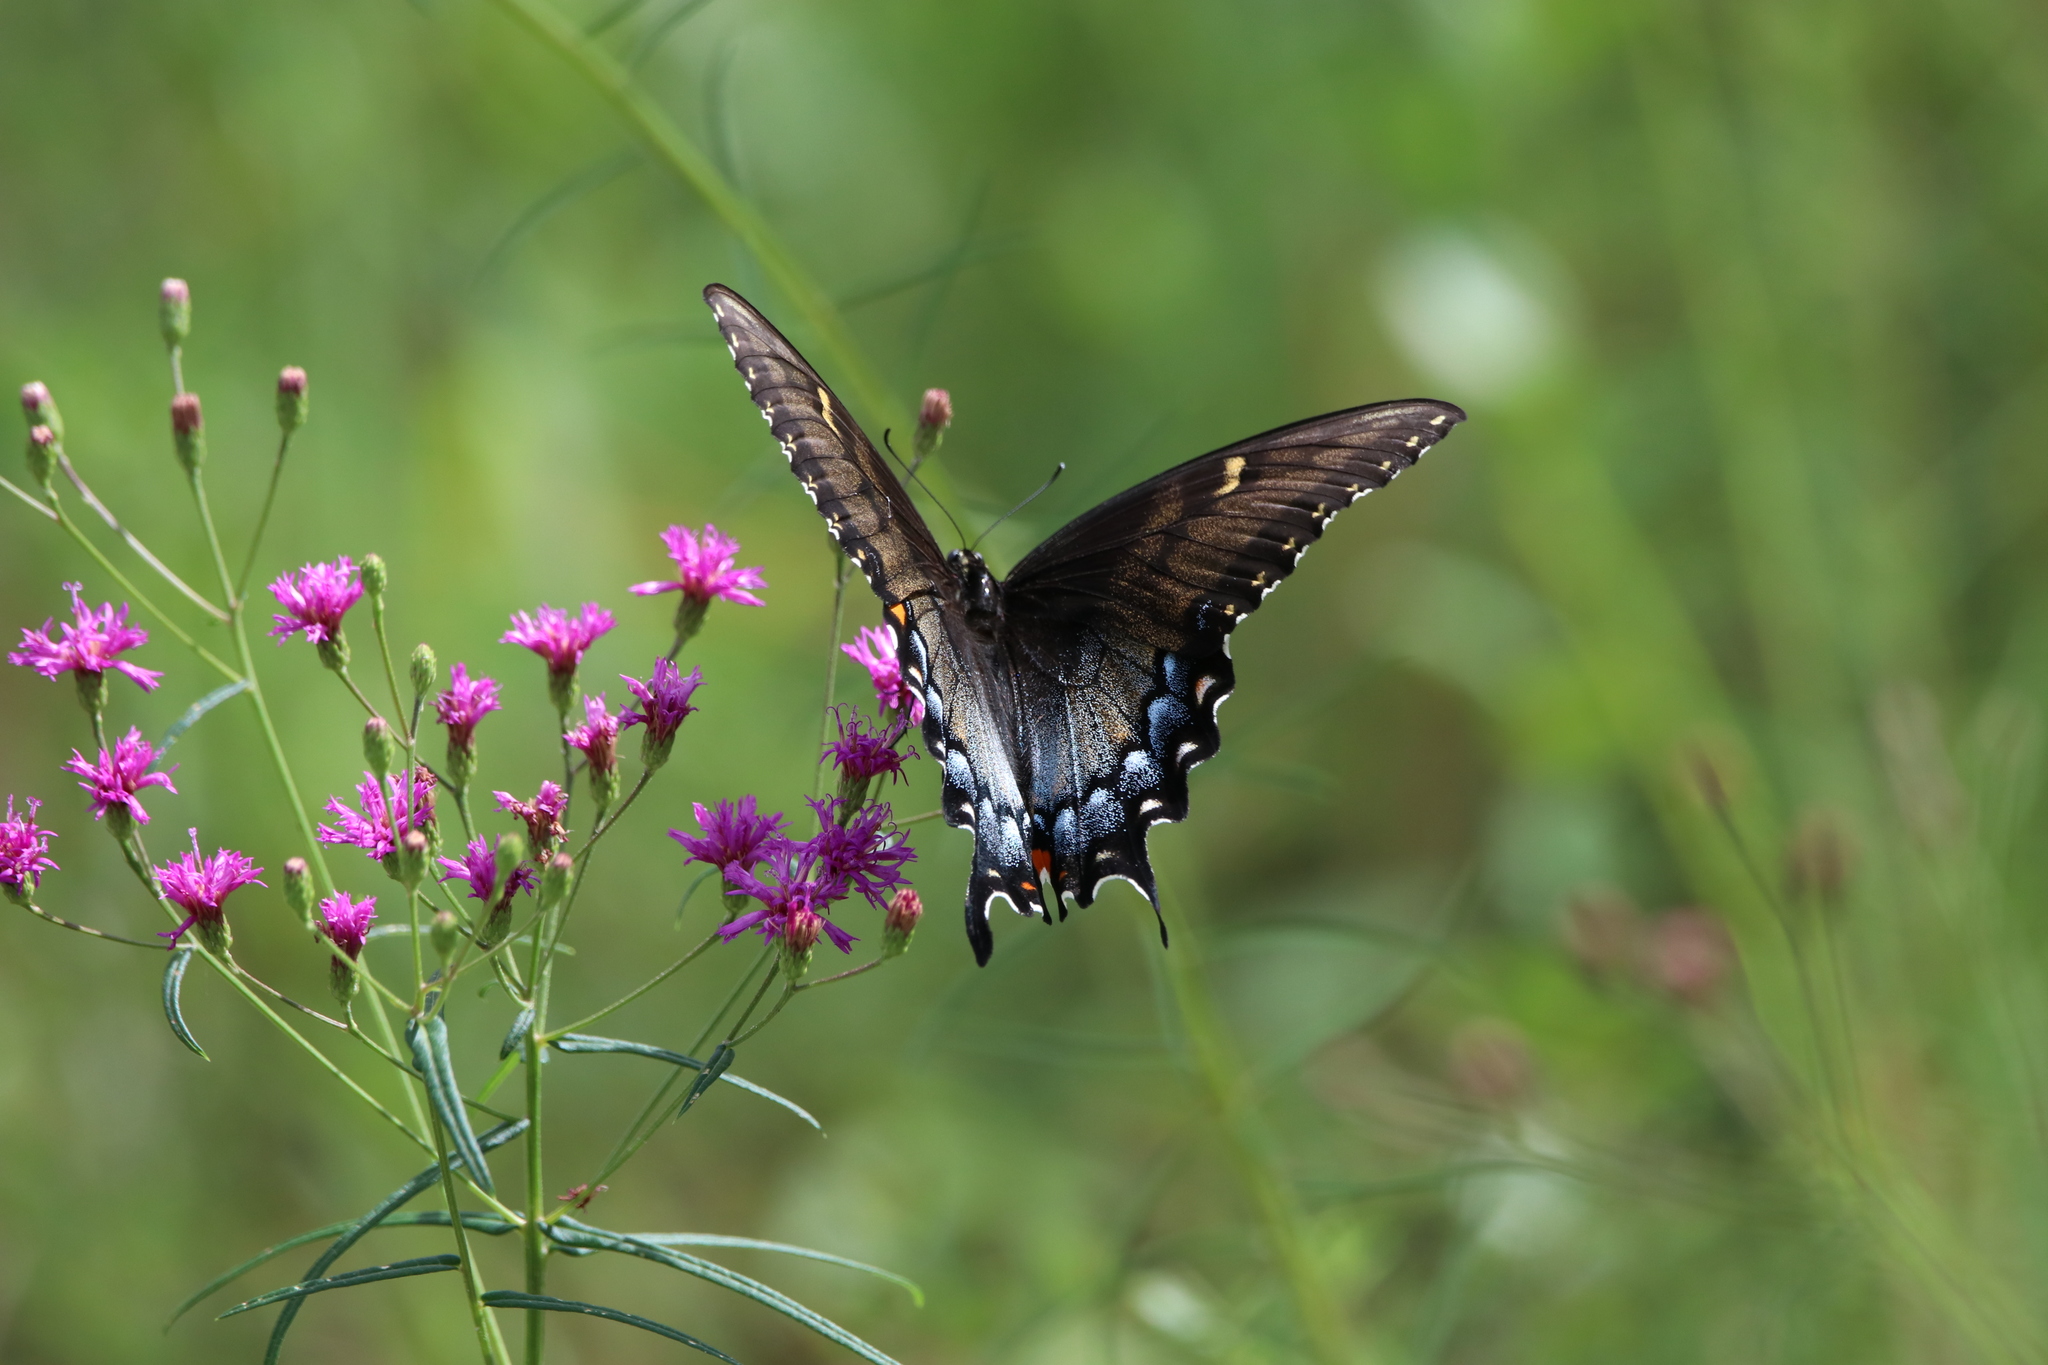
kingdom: Animalia
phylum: Arthropoda
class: Insecta
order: Lepidoptera
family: Papilionidae
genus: Papilio
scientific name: Papilio glaucus
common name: Tiger swallowtail
